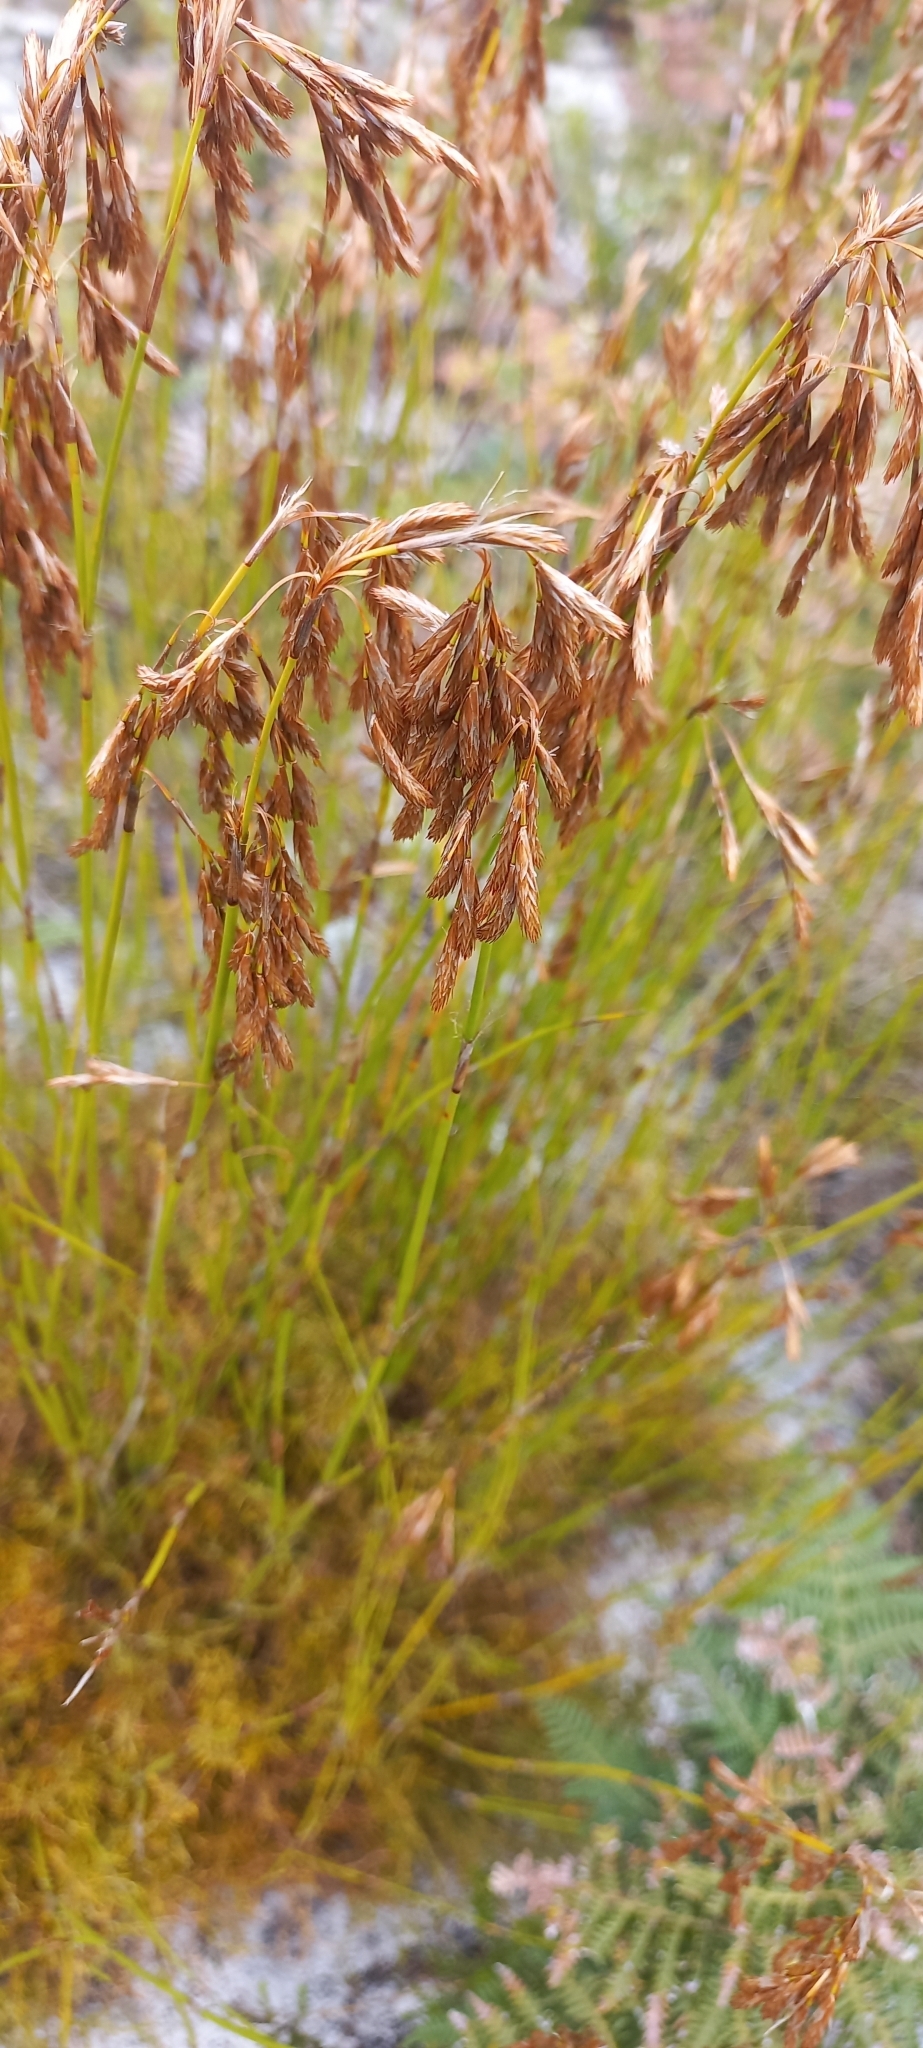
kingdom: Plantae
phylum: Tracheophyta
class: Liliopsida
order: Poales
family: Restionaceae
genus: Thamnochortus
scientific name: Thamnochortus lucens
